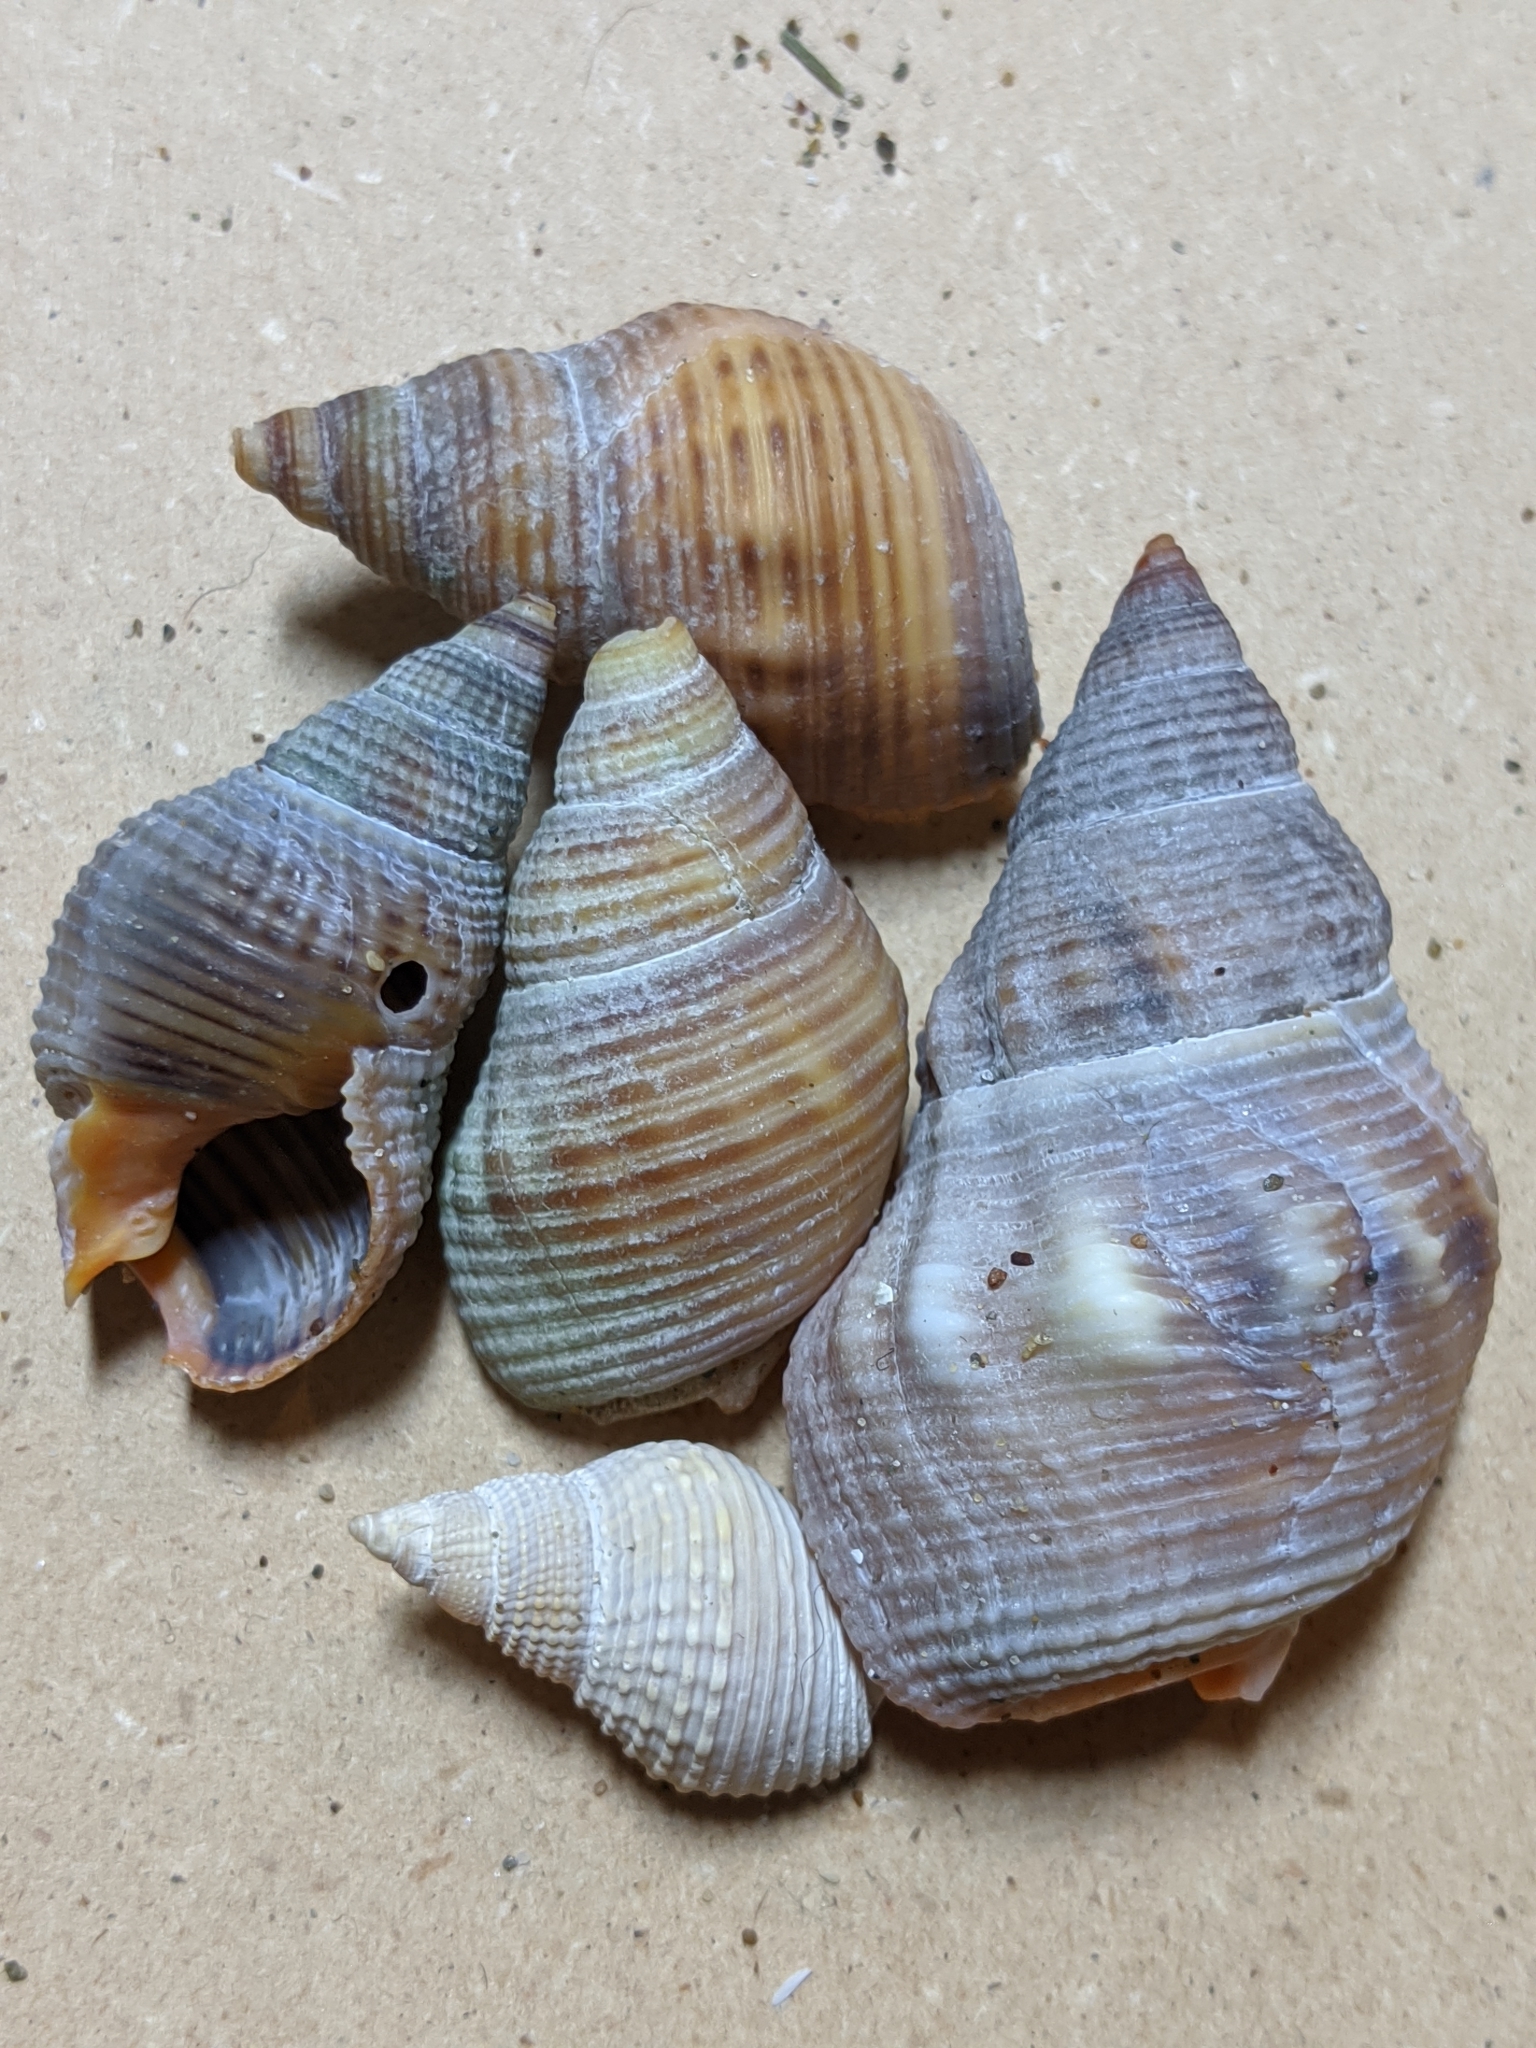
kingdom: Animalia
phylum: Mollusca
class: Gastropoda
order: Neogastropoda
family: Nassariidae
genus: Caesia
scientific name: Caesia fossata
